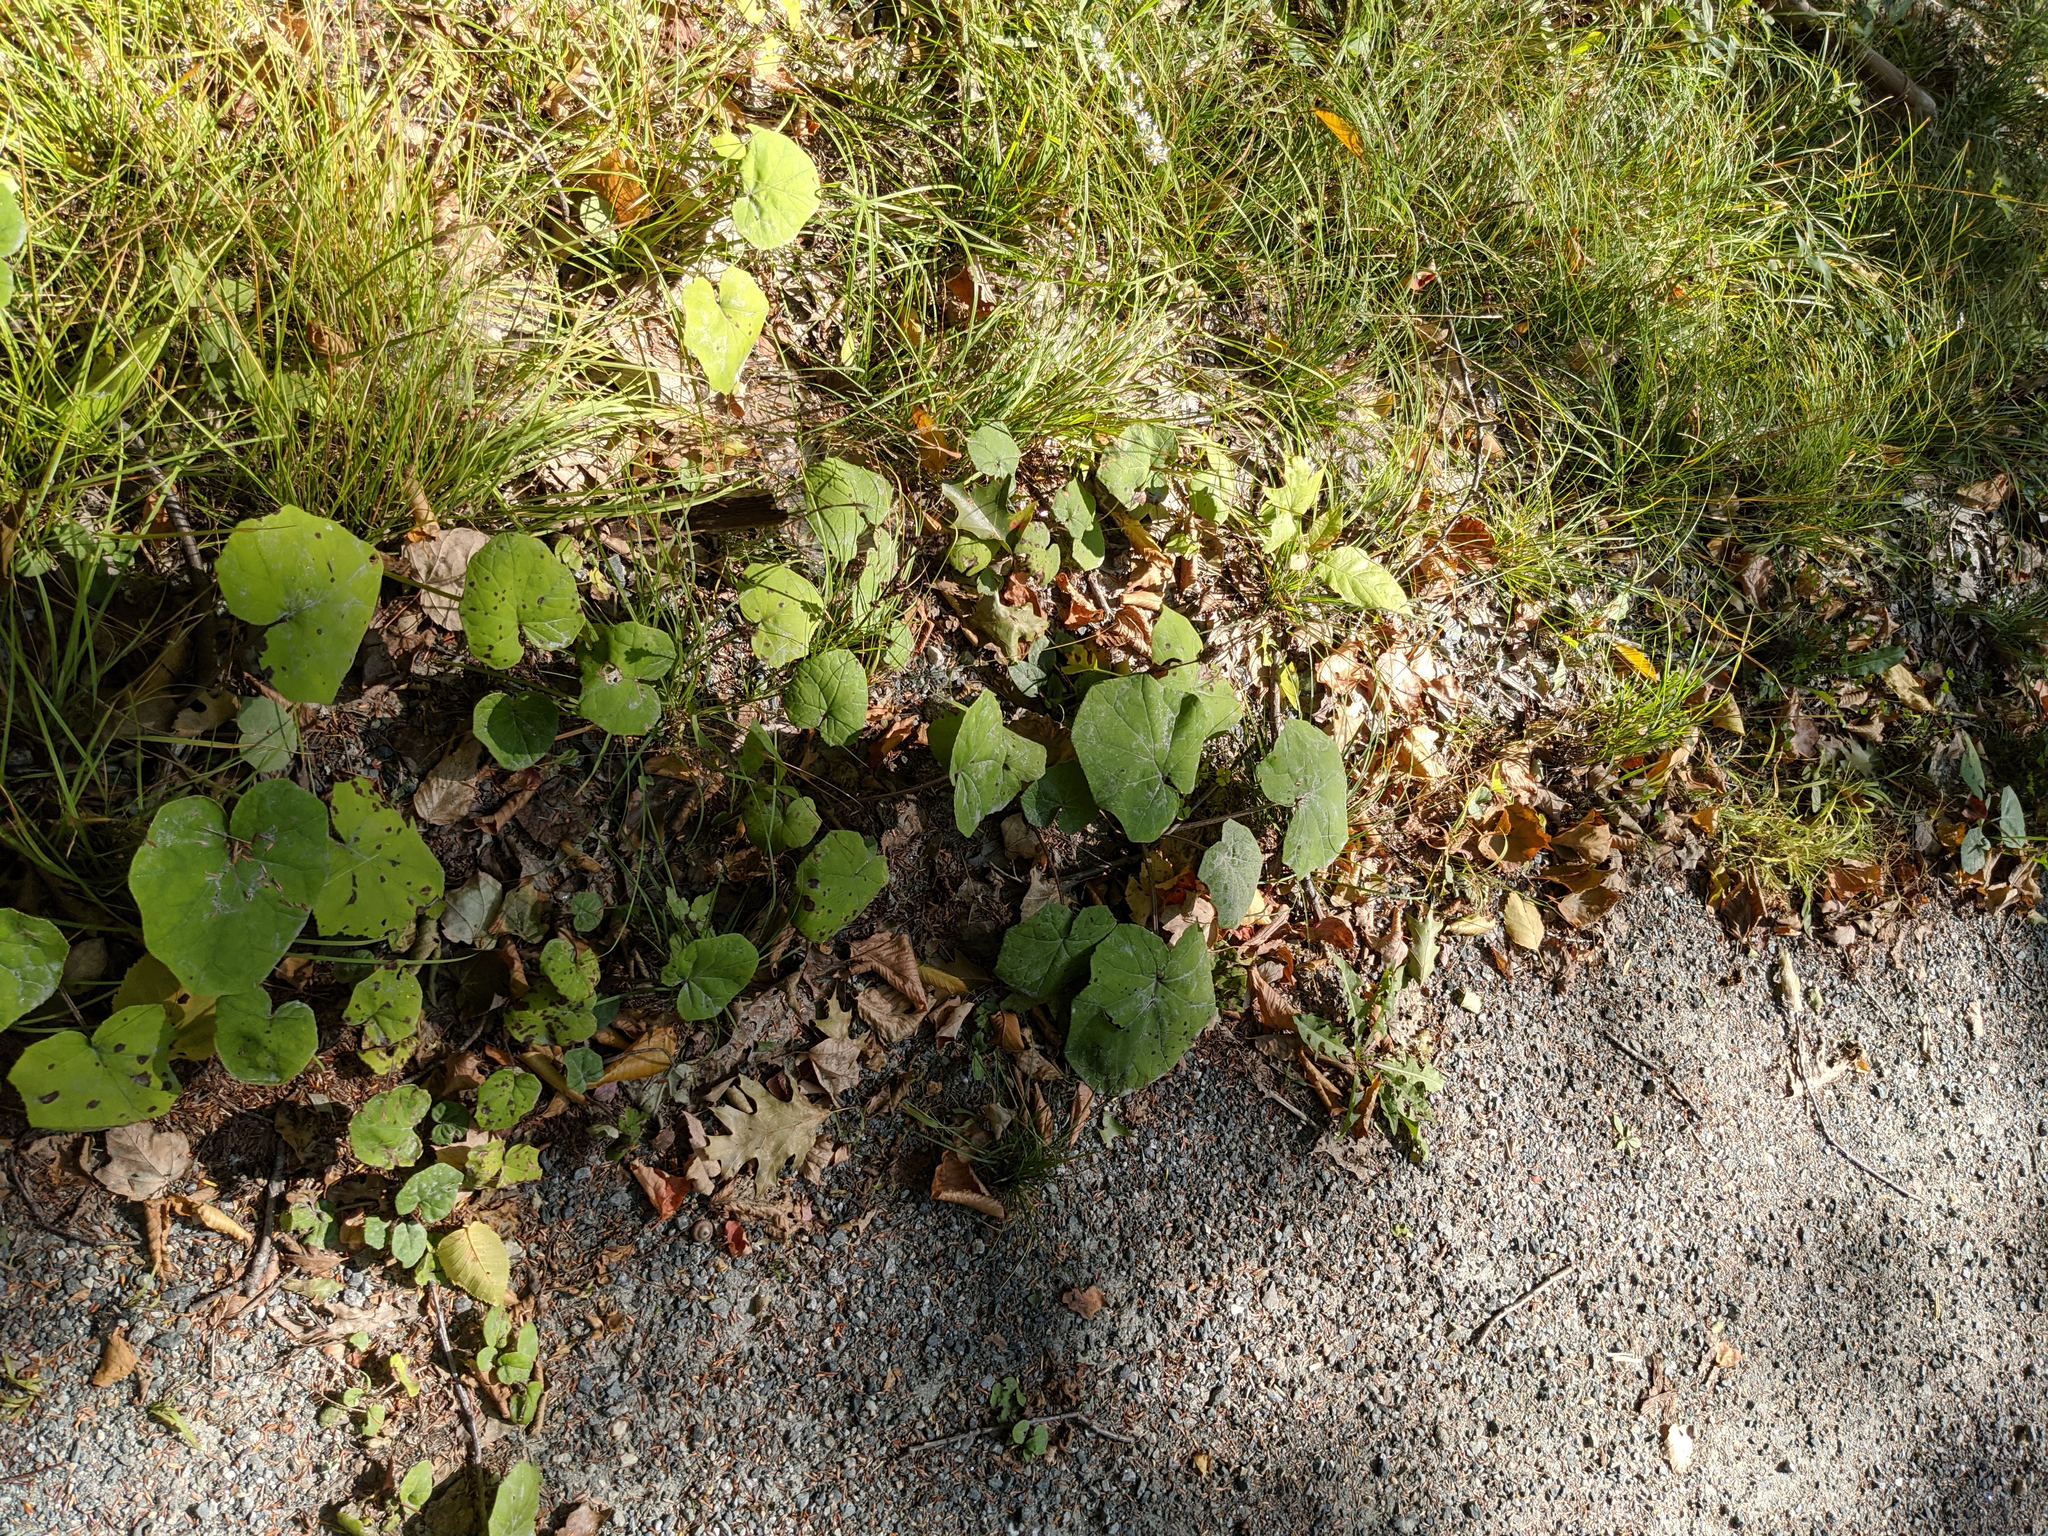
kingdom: Plantae
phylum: Tracheophyta
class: Magnoliopsida
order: Asterales
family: Asteraceae
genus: Tussilago
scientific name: Tussilago farfara
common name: Coltsfoot
